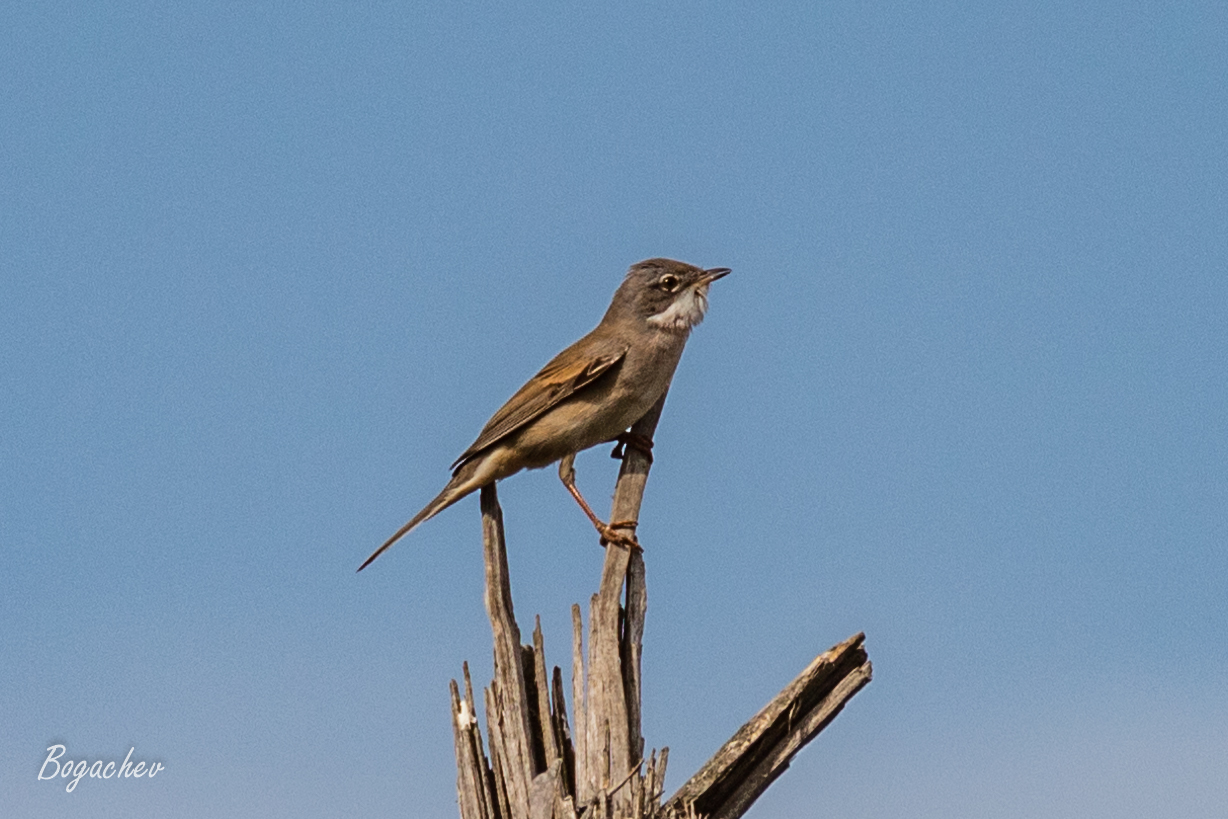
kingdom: Animalia
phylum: Chordata
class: Aves
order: Passeriformes
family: Sylviidae
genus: Sylvia
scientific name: Sylvia communis
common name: Common whitethroat
